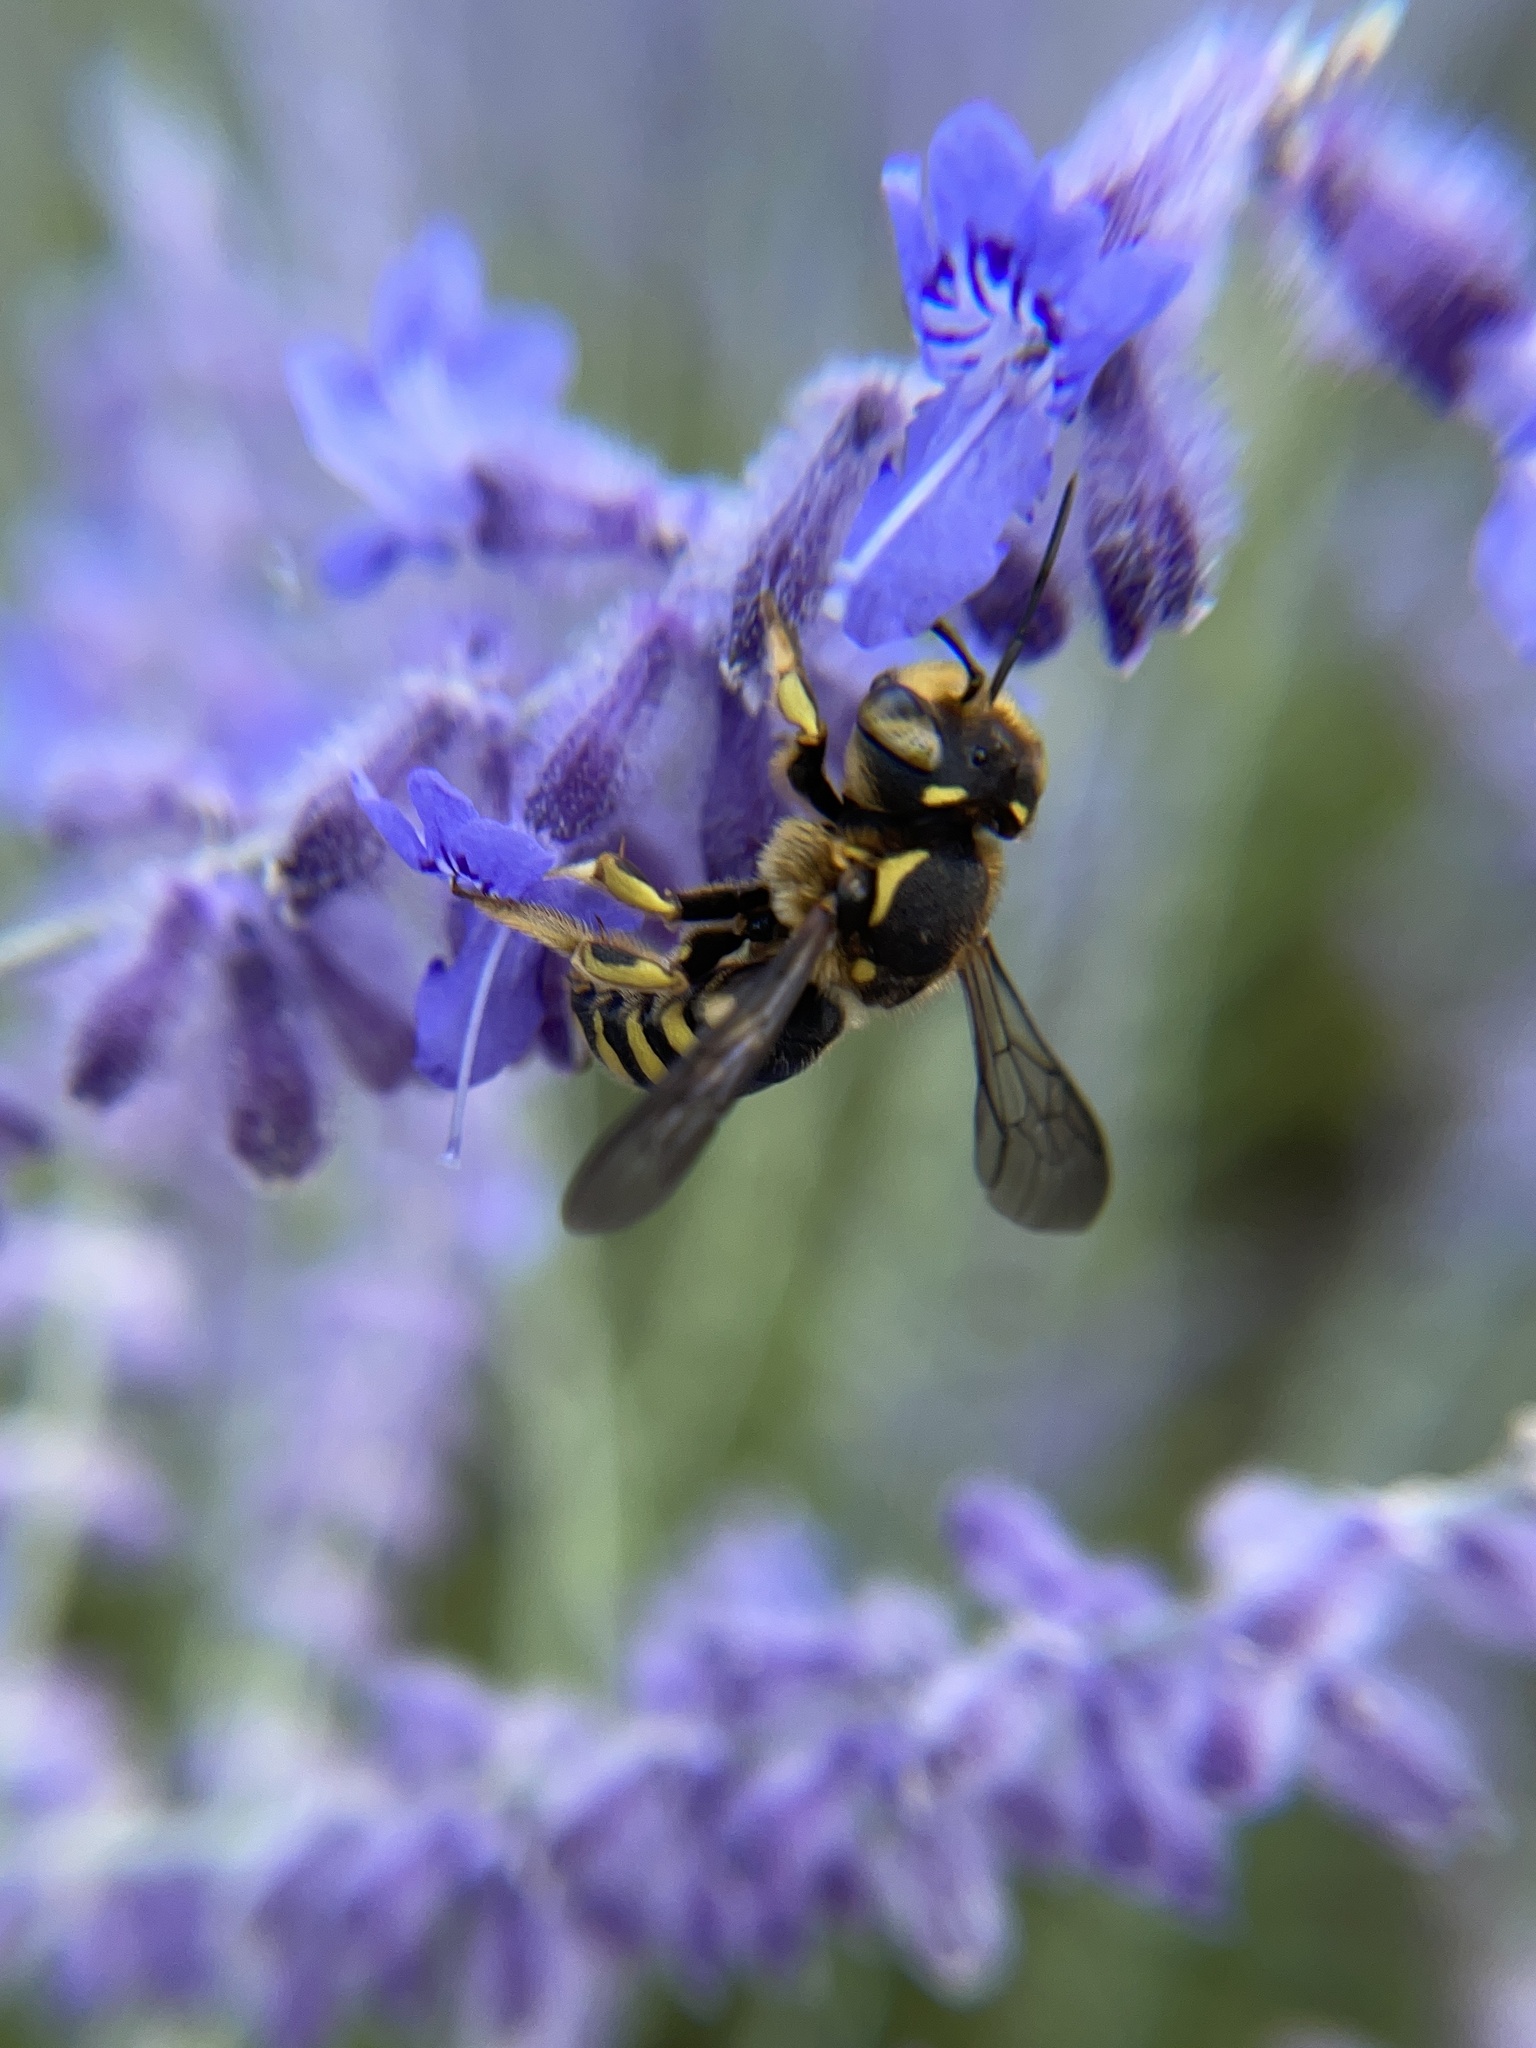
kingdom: Animalia
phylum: Arthropoda
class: Insecta
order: Hymenoptera
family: Megachilidae
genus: Anthidium
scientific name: Anthidium florentinum
